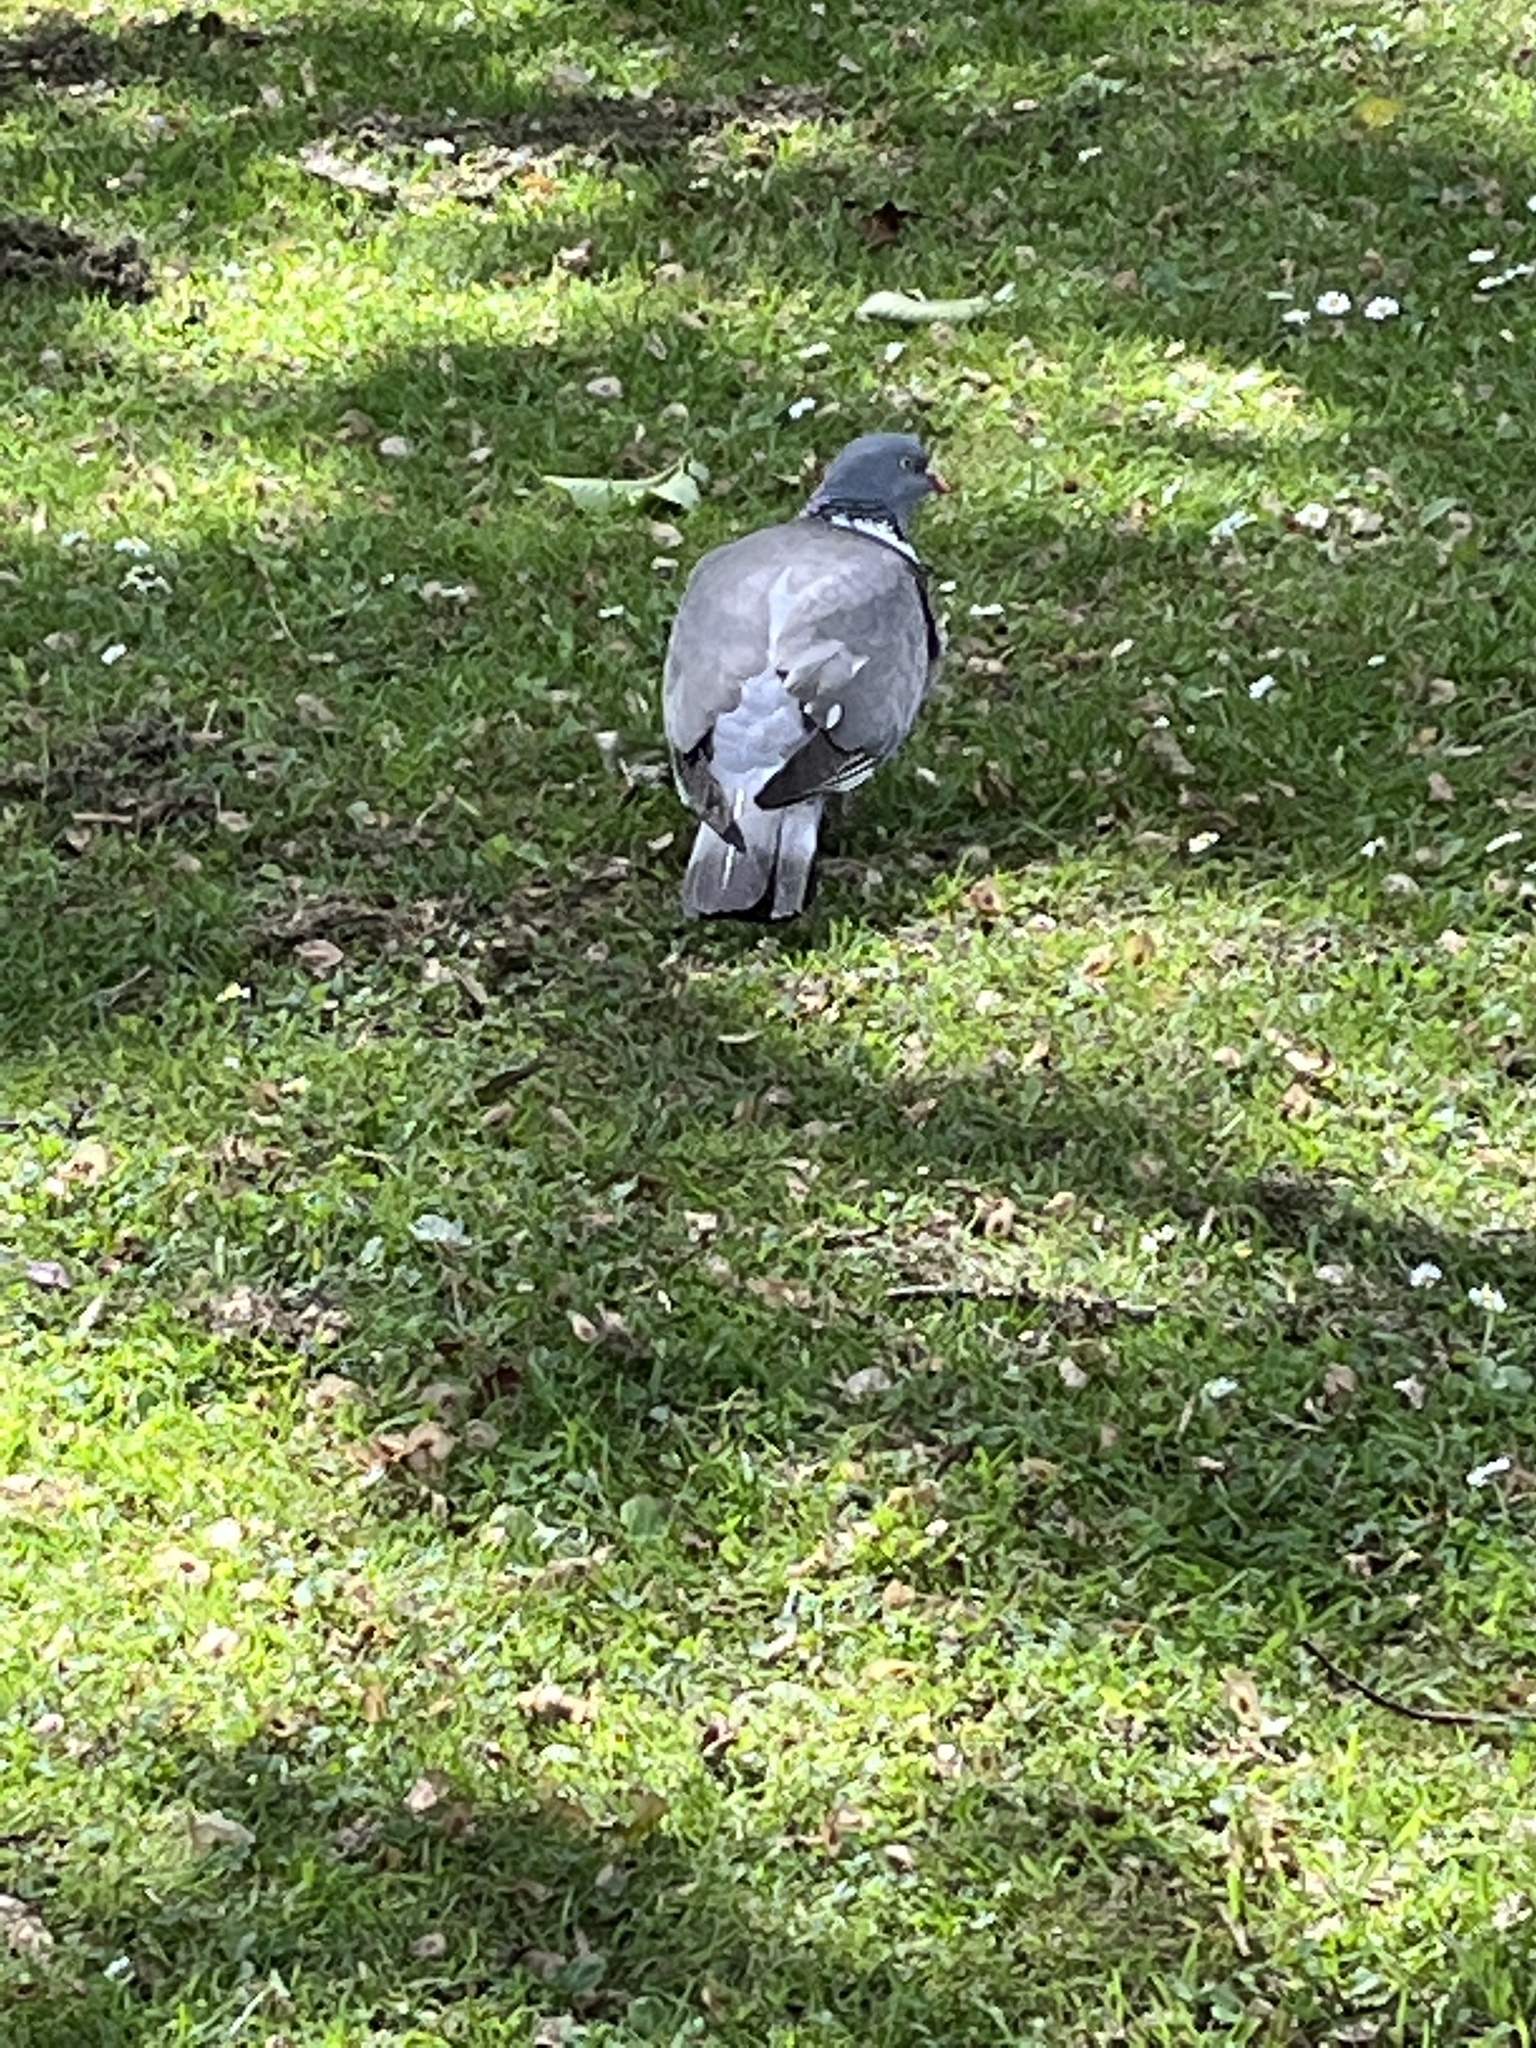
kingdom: Animalia
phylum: Chordata
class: Aves
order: Columbiformes
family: Columbidae
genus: Columba
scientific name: Columba palumbus
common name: Common wood pigeon
